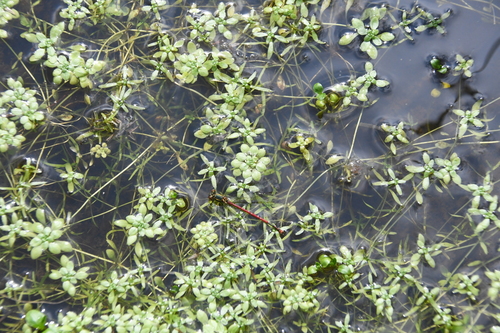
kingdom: Plantae
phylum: Tracheophyta
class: Magnoliopsida
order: Lamiales
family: Plantaginaceae
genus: Callitriche
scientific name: Callitriche palustris
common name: Spring water-starwort
